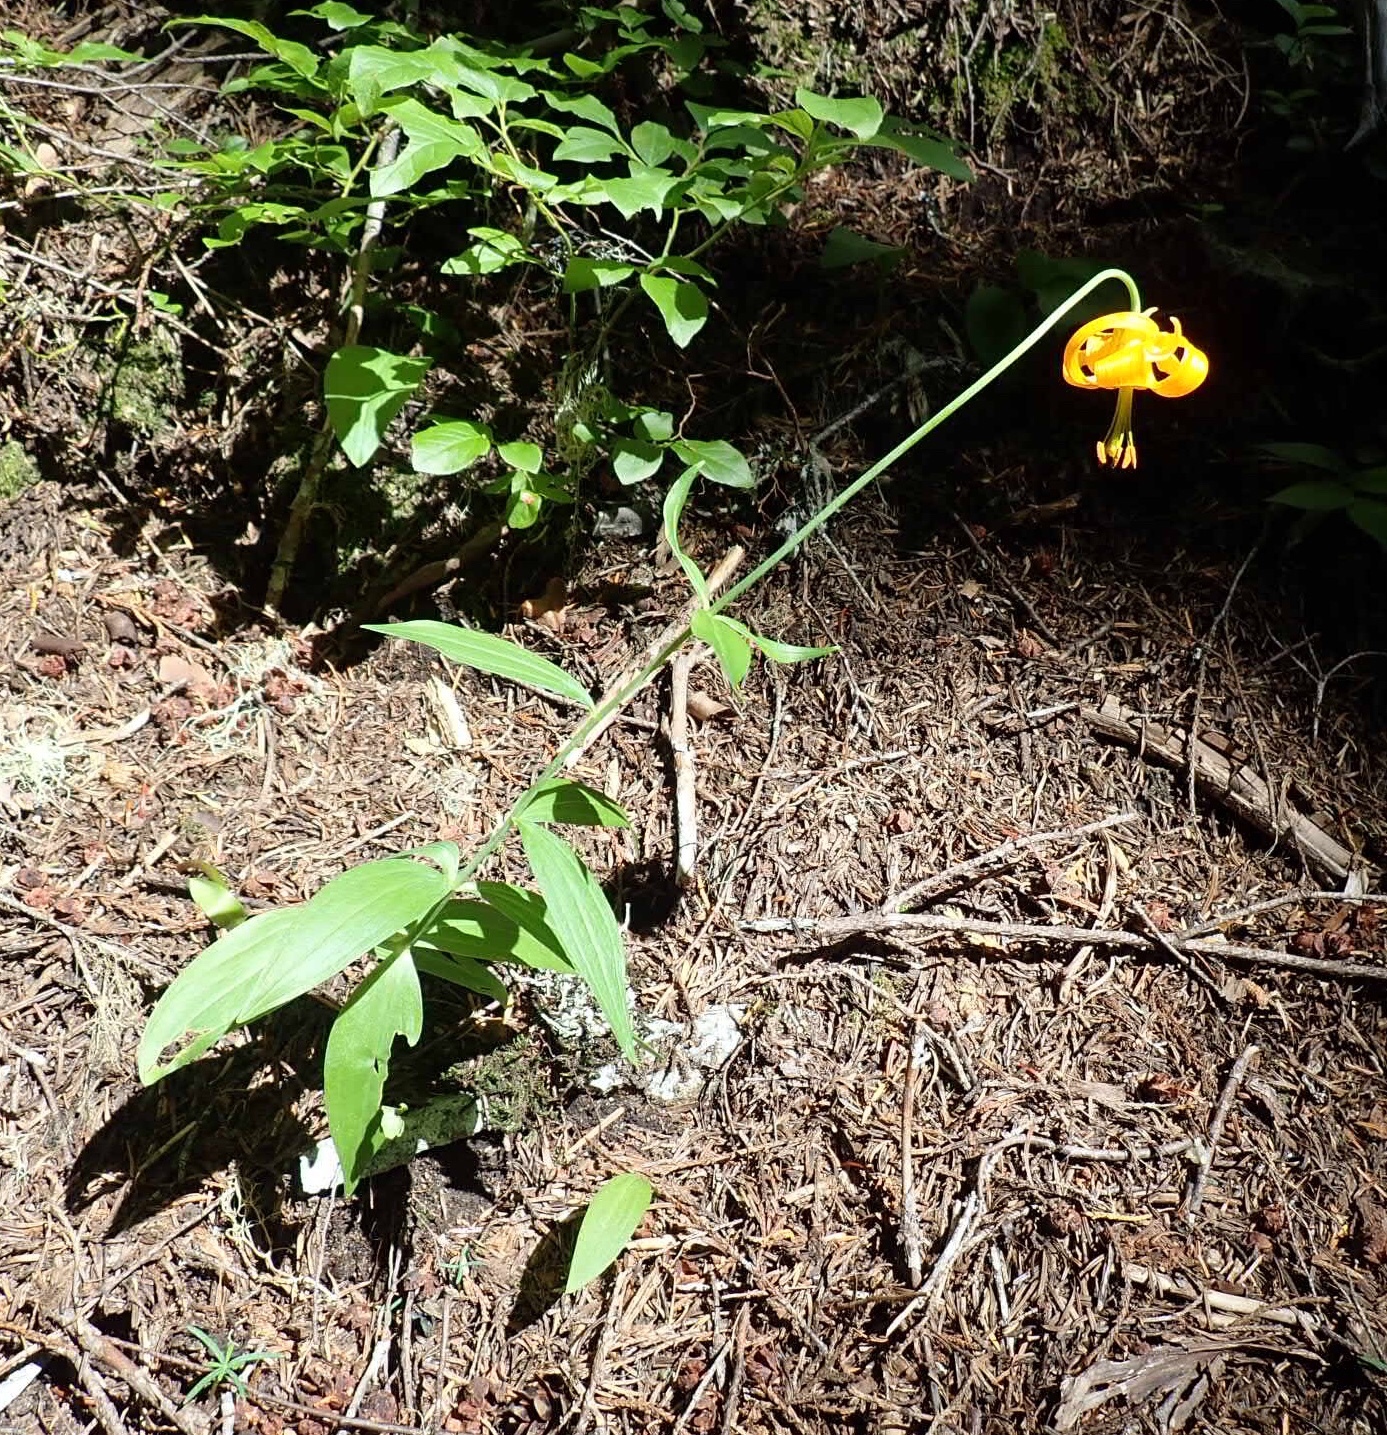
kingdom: Plantae
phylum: Tracheophyta
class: Liliopsida
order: Liliales
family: Liliaceae
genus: Lilium
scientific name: Lilium columbianum
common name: Columbia lily
